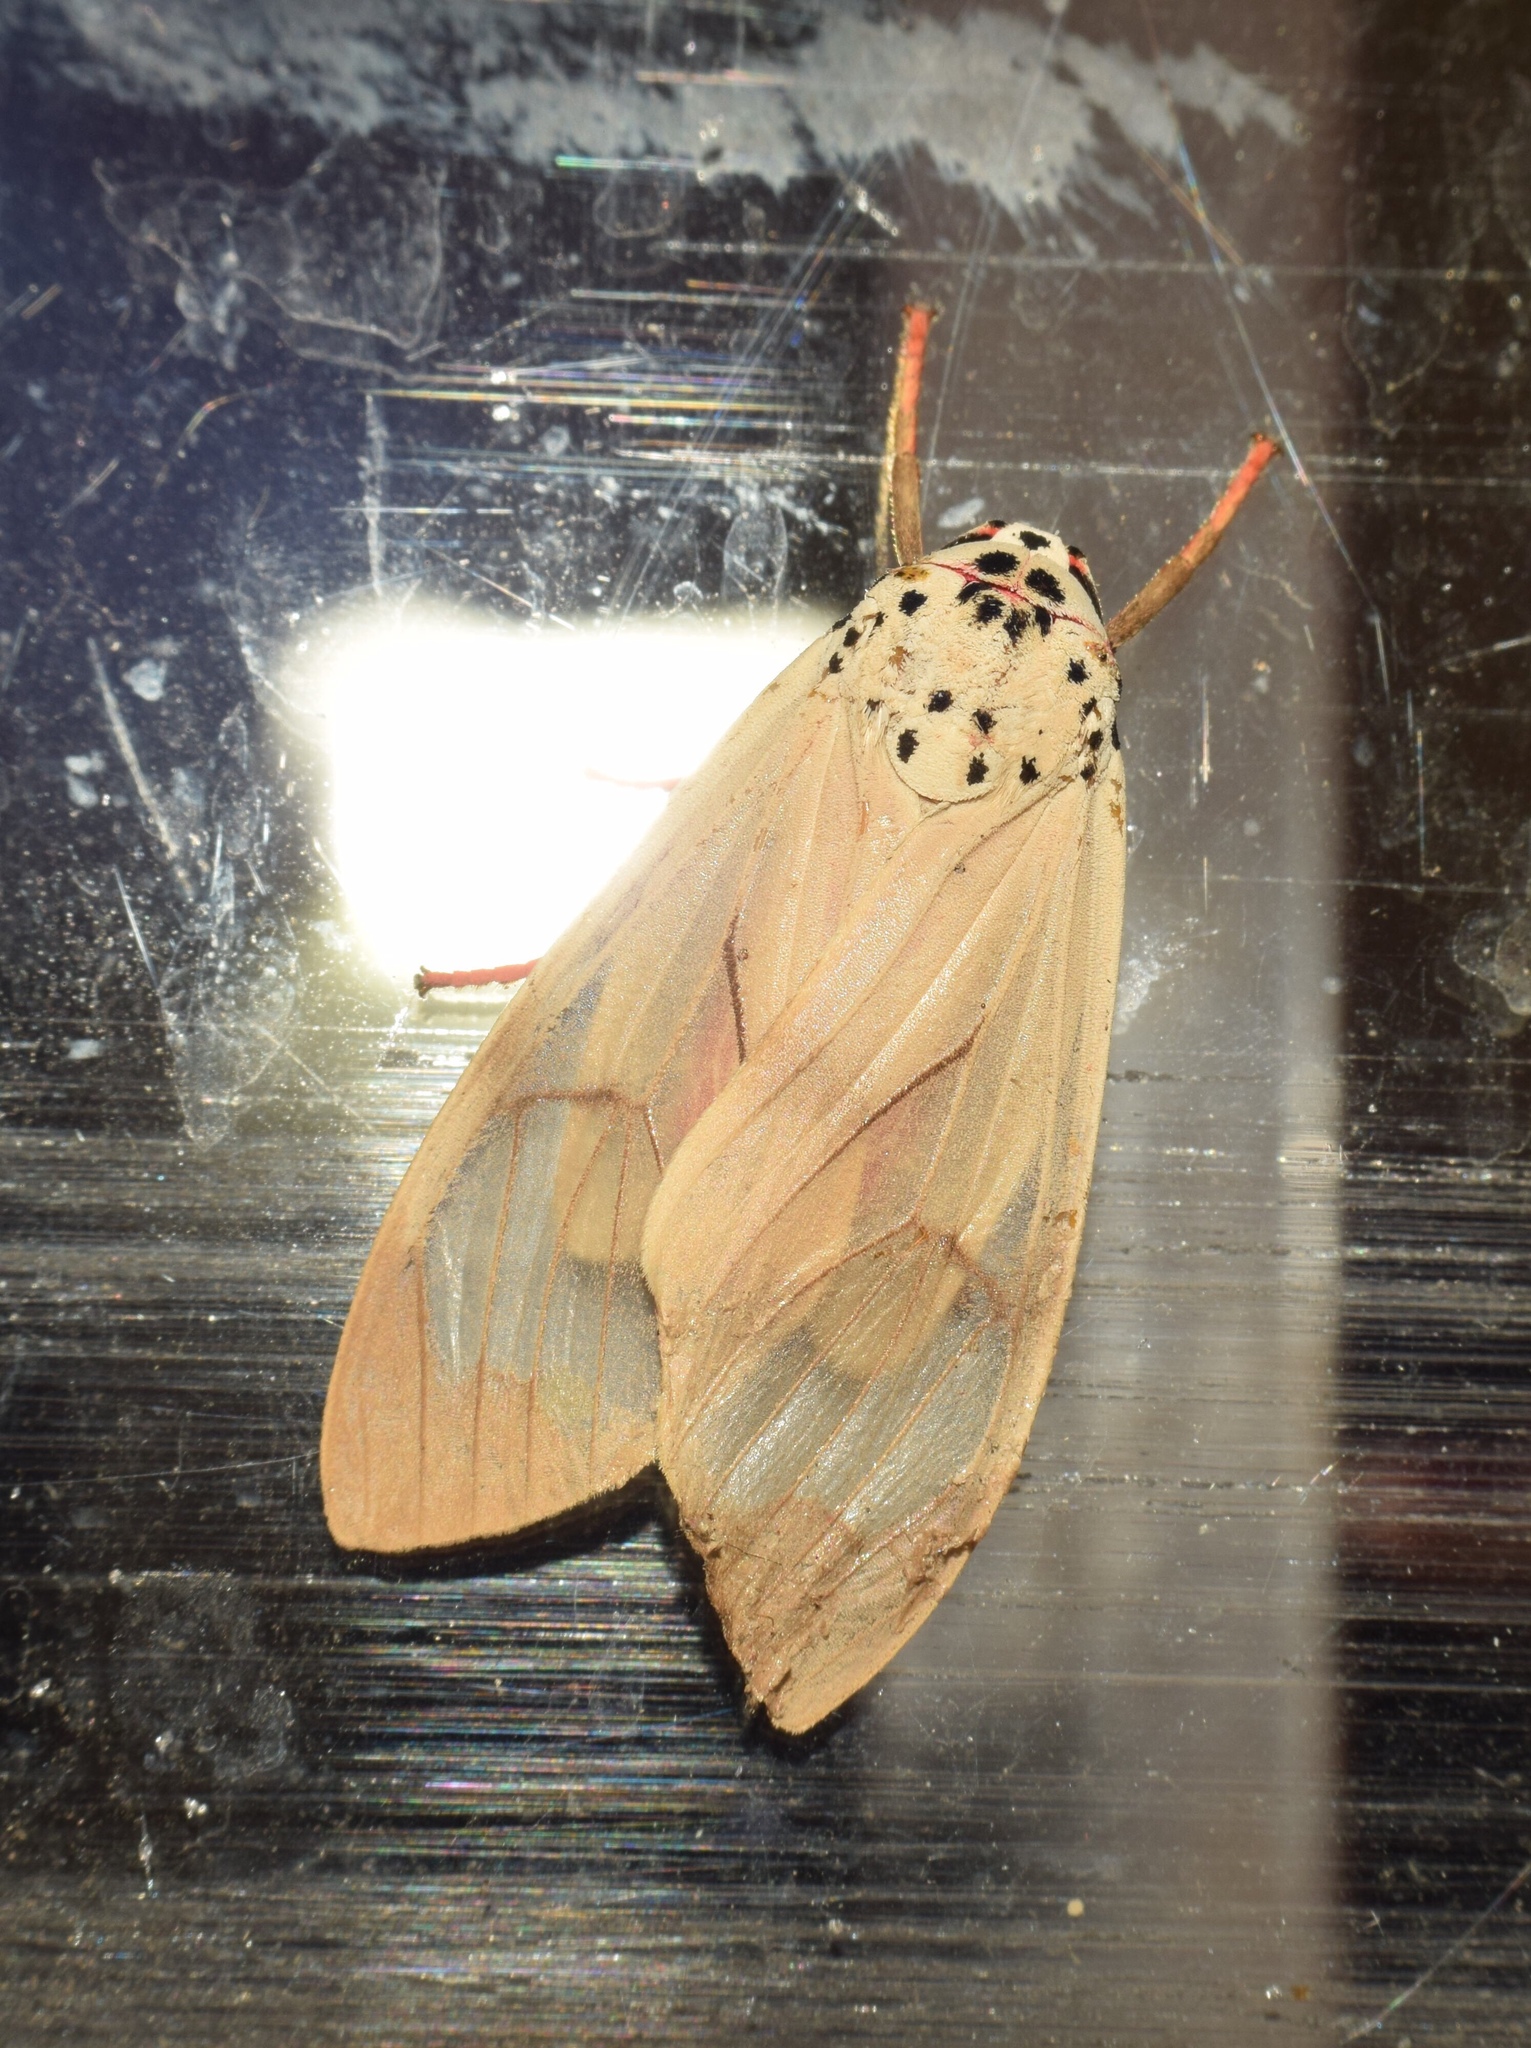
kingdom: Animalia
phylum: Arthropoda
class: Insecta
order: Lepidoptera
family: Erebidae
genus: Amerila
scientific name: Amerila affinis
